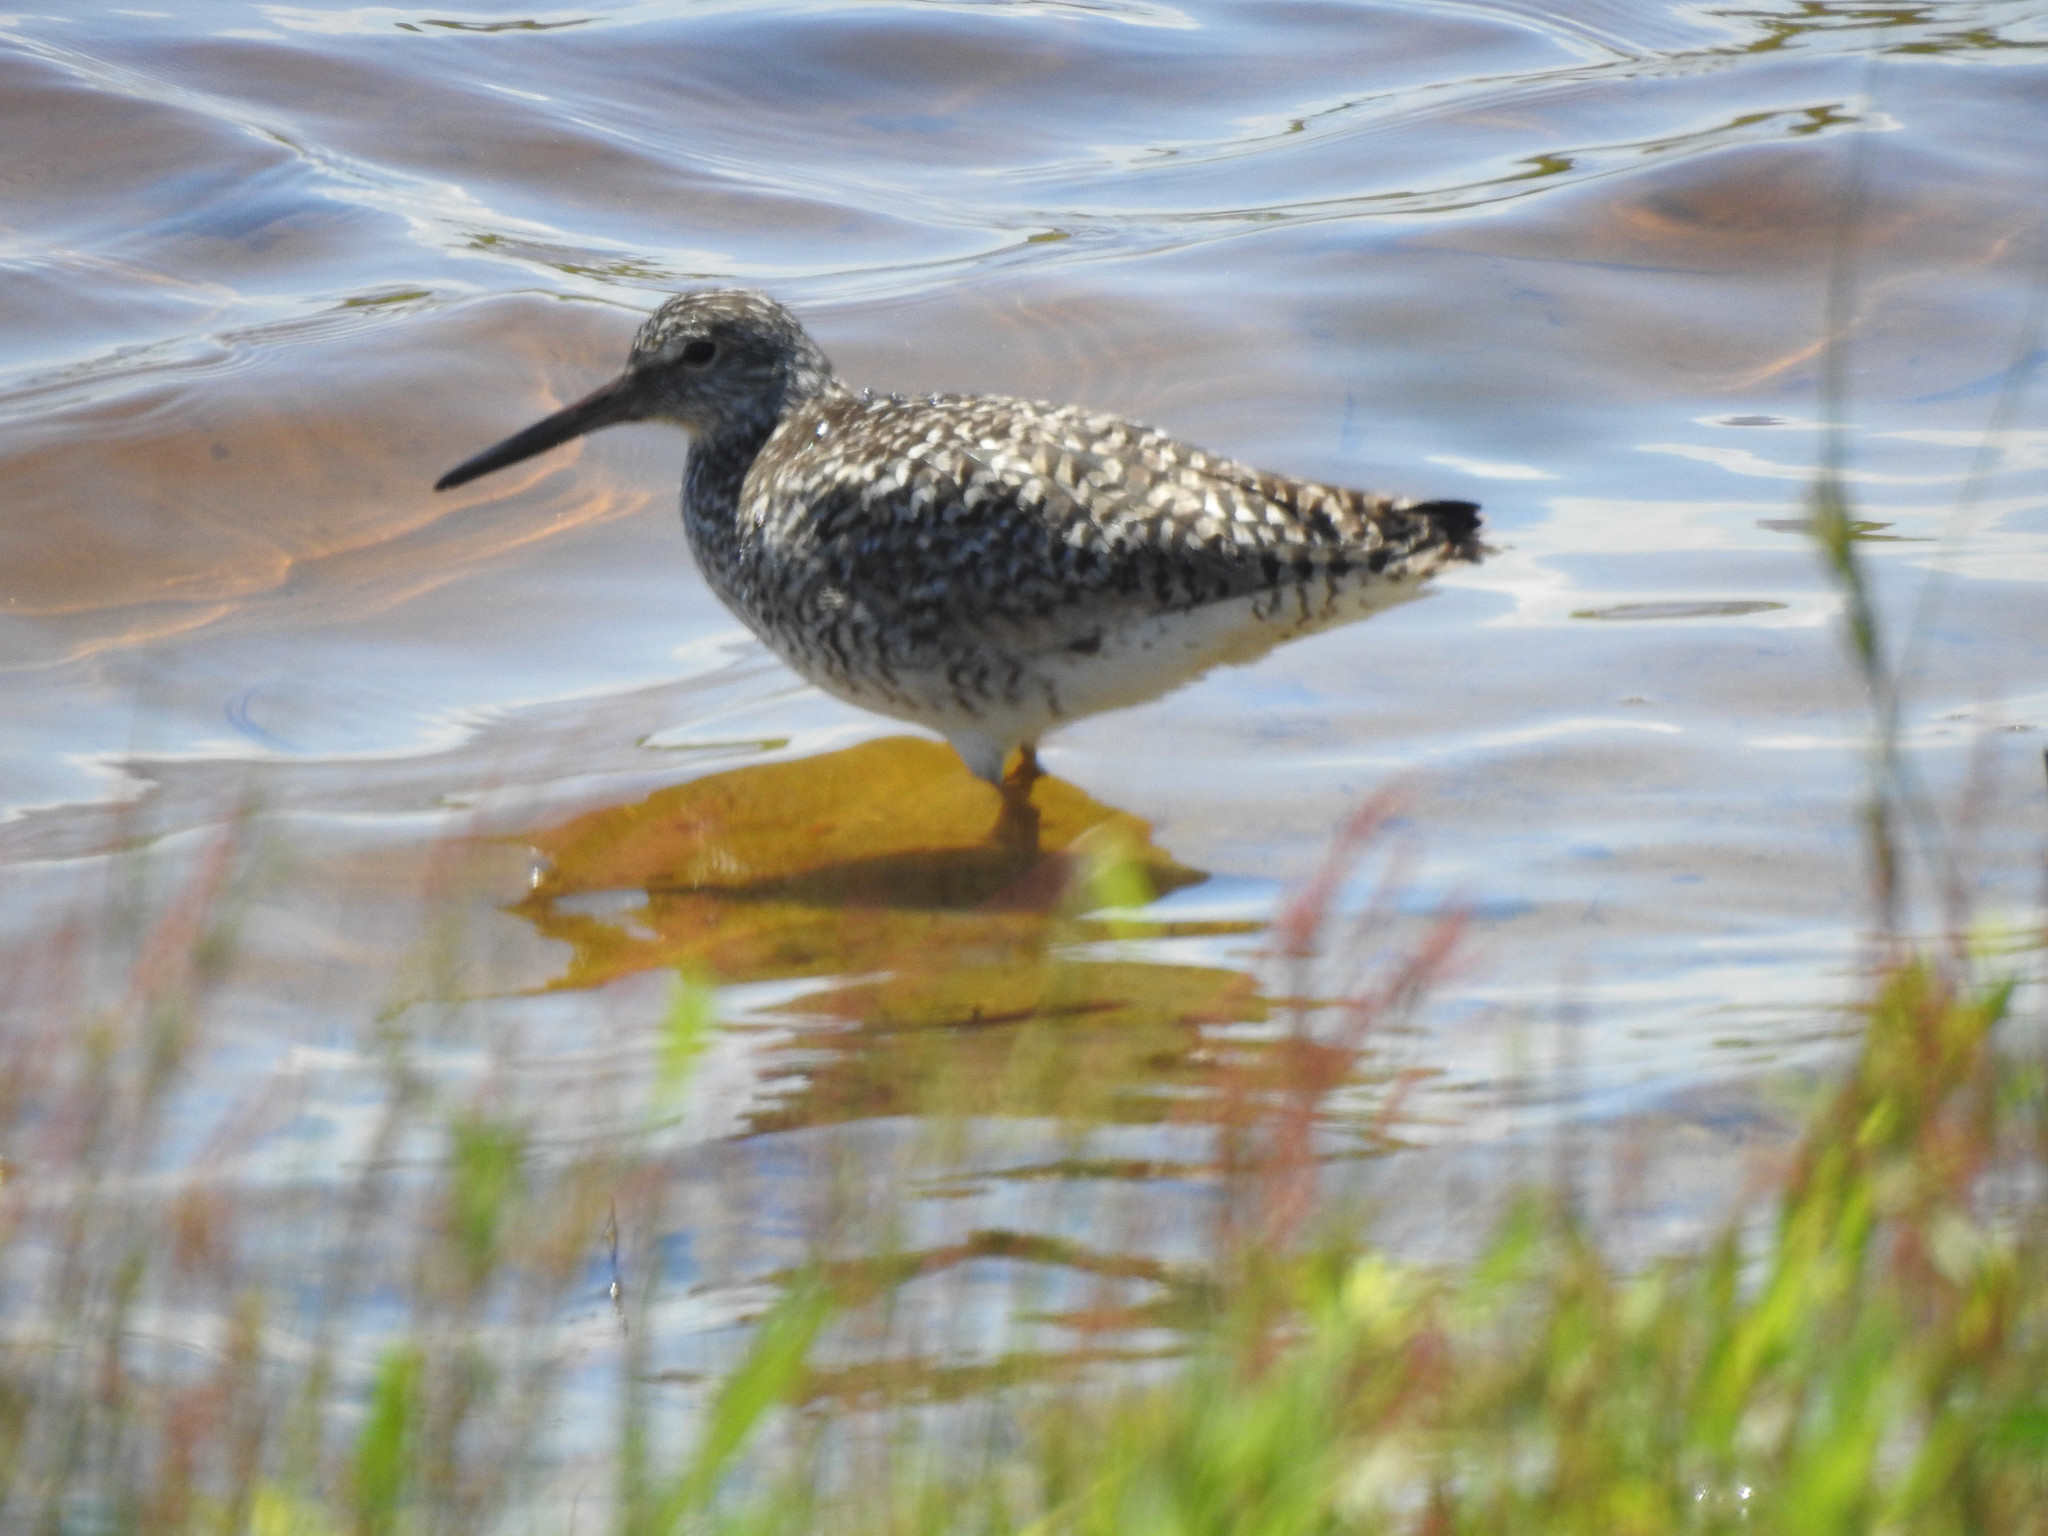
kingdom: Animalia
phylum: Chordata
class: Aves
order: Charadriiformes
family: Scolopacidae
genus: Tringa
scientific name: Tringa semipalmata
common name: Willet
